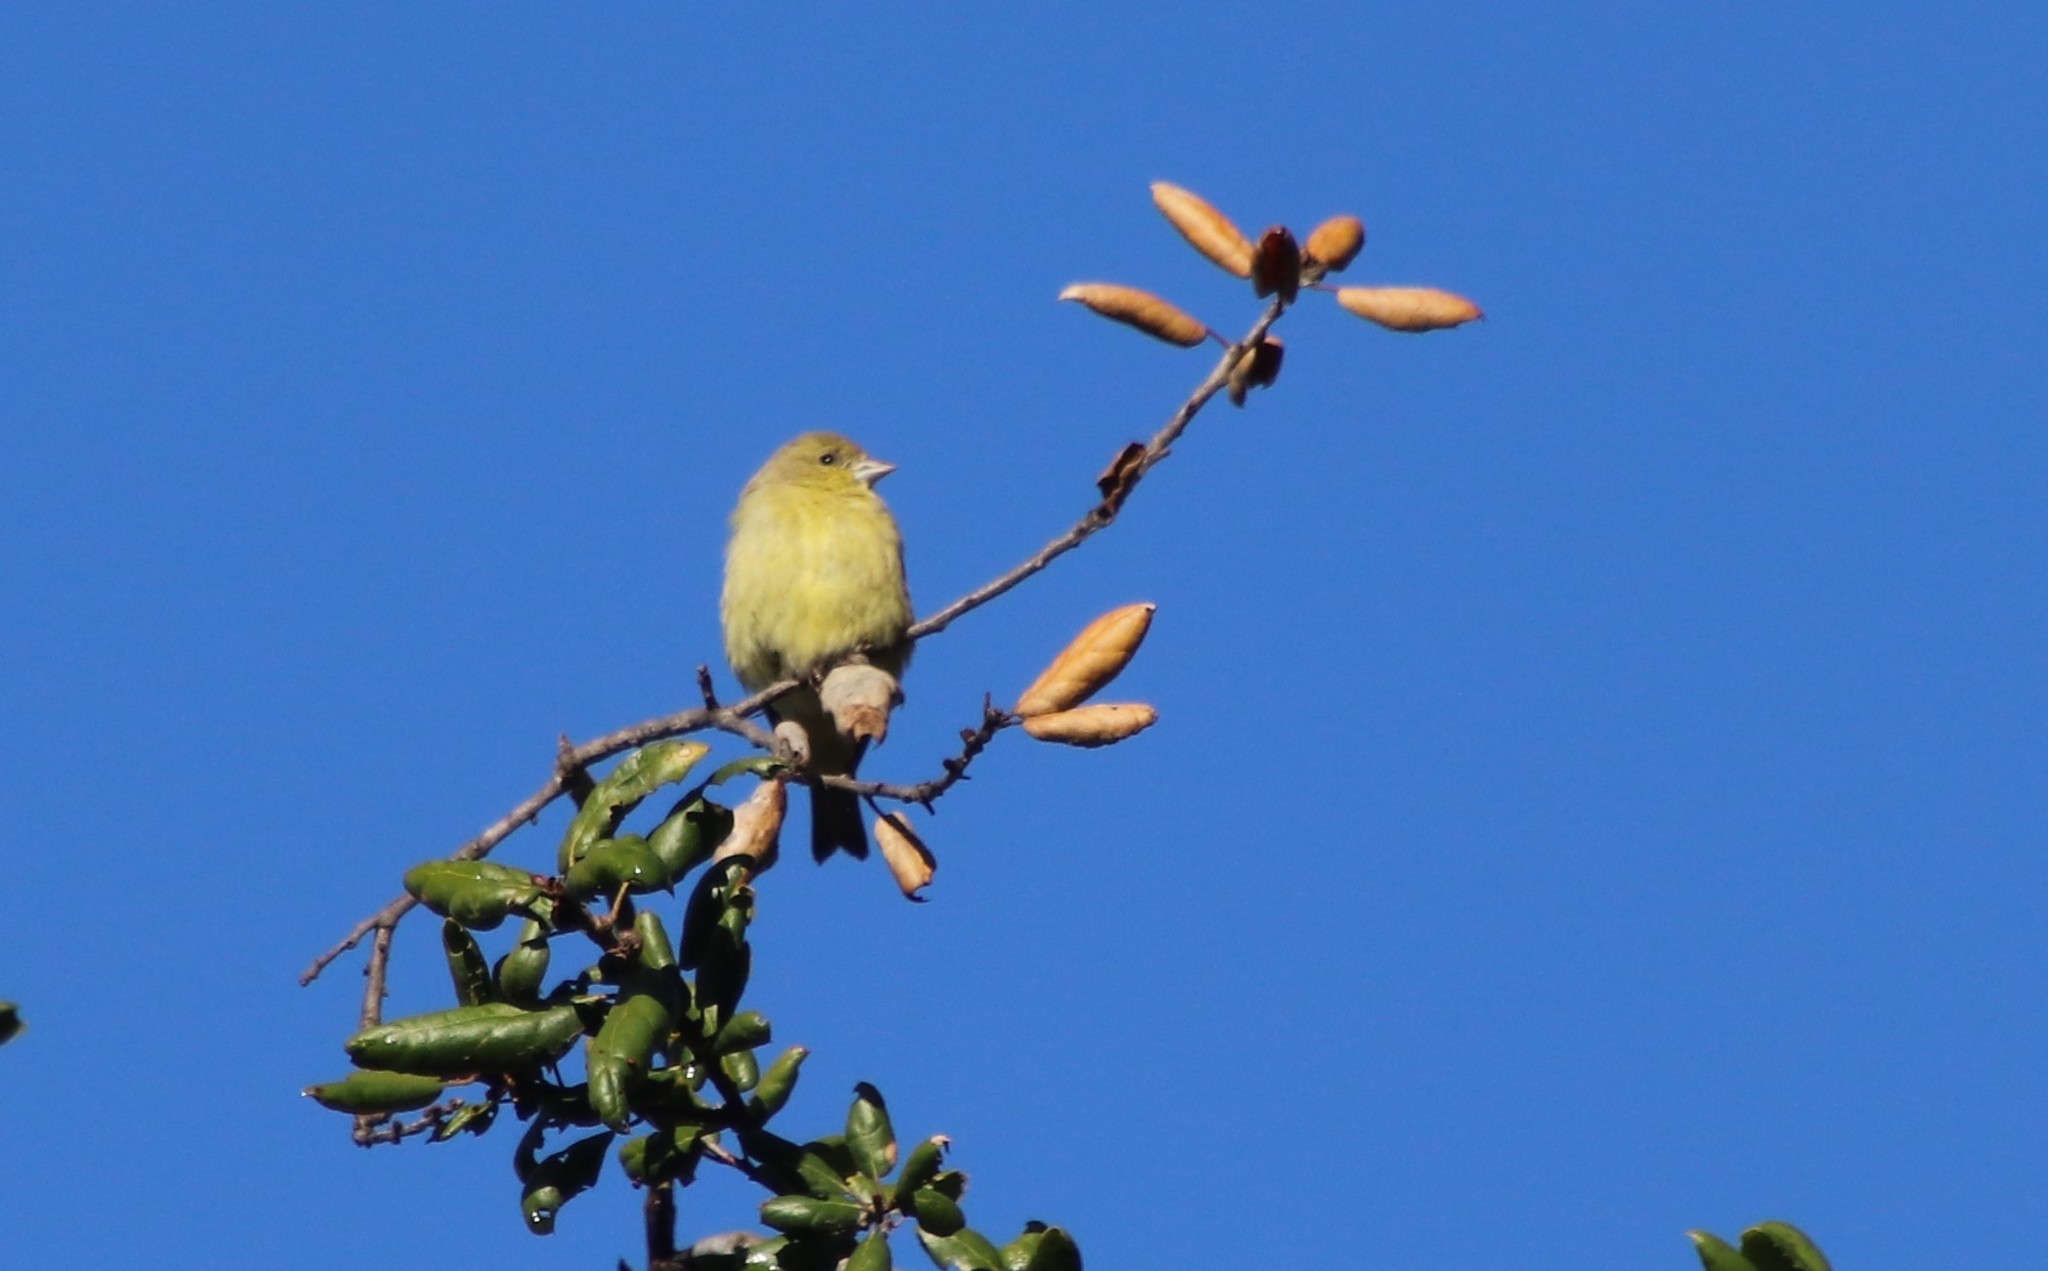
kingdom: Animalia
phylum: Chordata
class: Aves
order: Passeriformes
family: Fringillidae
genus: Spinus
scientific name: Spinus psaltria
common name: Lesser goldfinch
